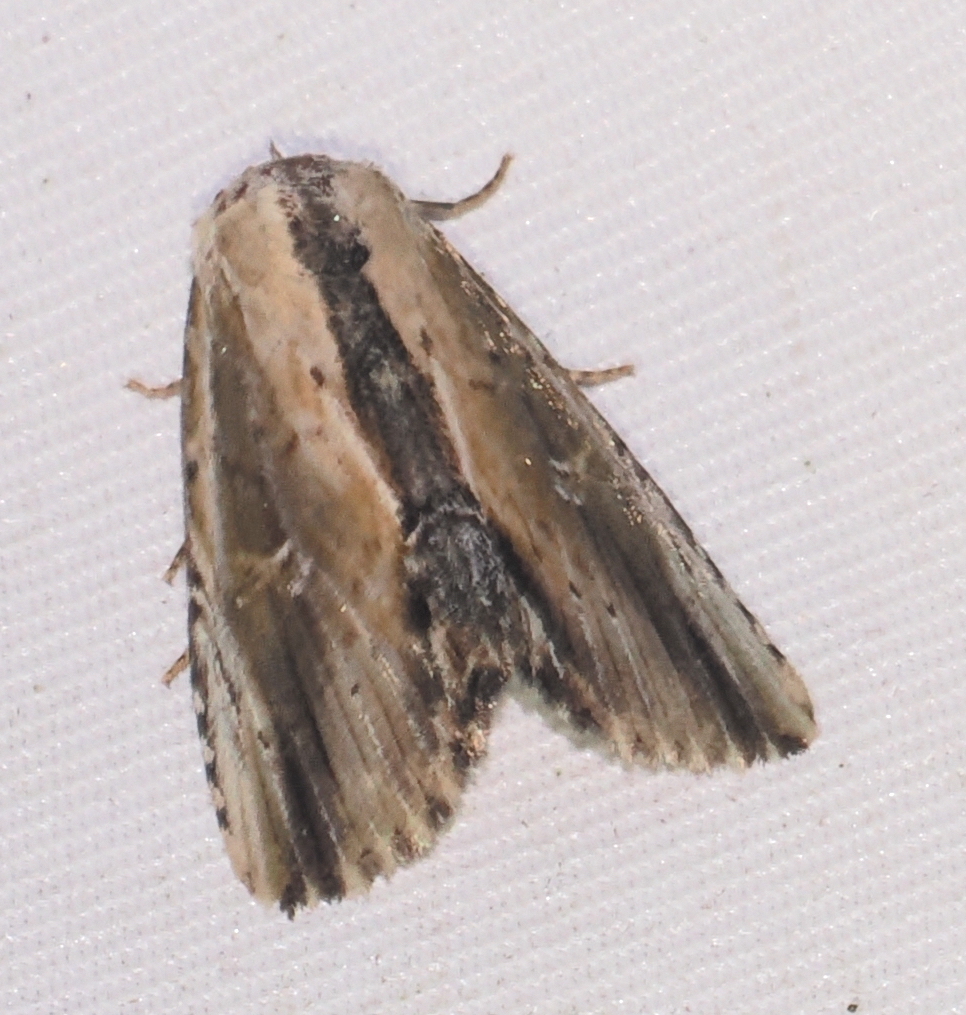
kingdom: Animalia
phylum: Arthropoda
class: Insecta
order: Lepidoptera
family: Noctuidae
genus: Antachara
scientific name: Antachara denterna
